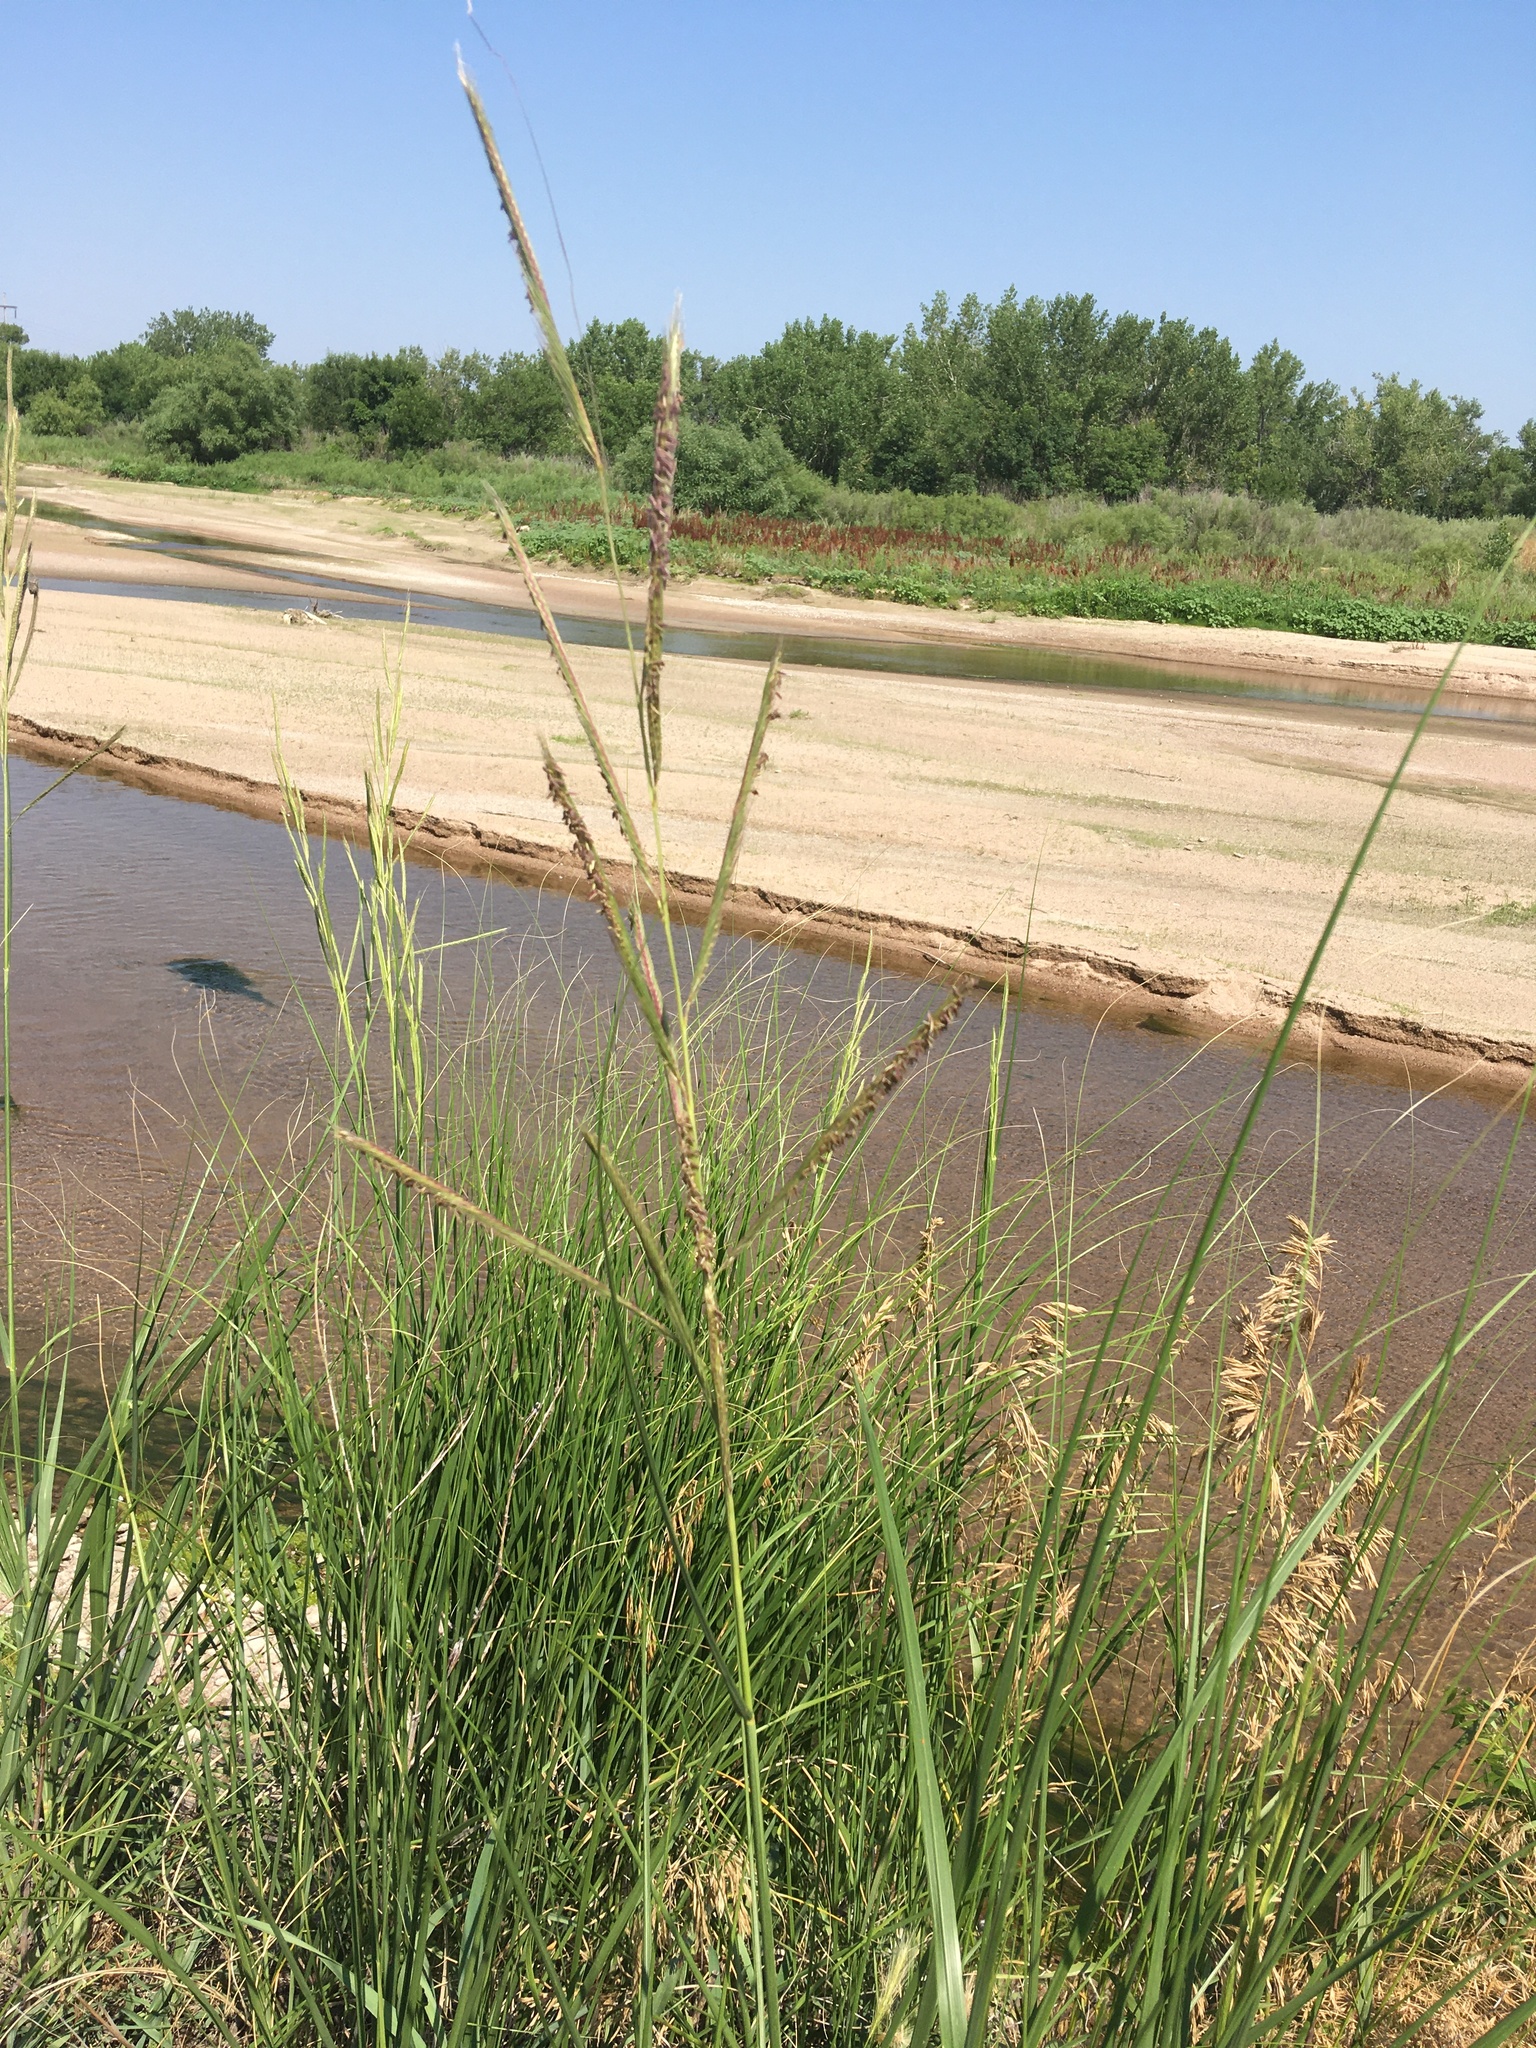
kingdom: Plantae
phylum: Tracheophyta
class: Liliopsida
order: Poales
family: Poaceae
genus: Sporobolus
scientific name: Sporobolus michauxianus
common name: Freshwater cordgrass
